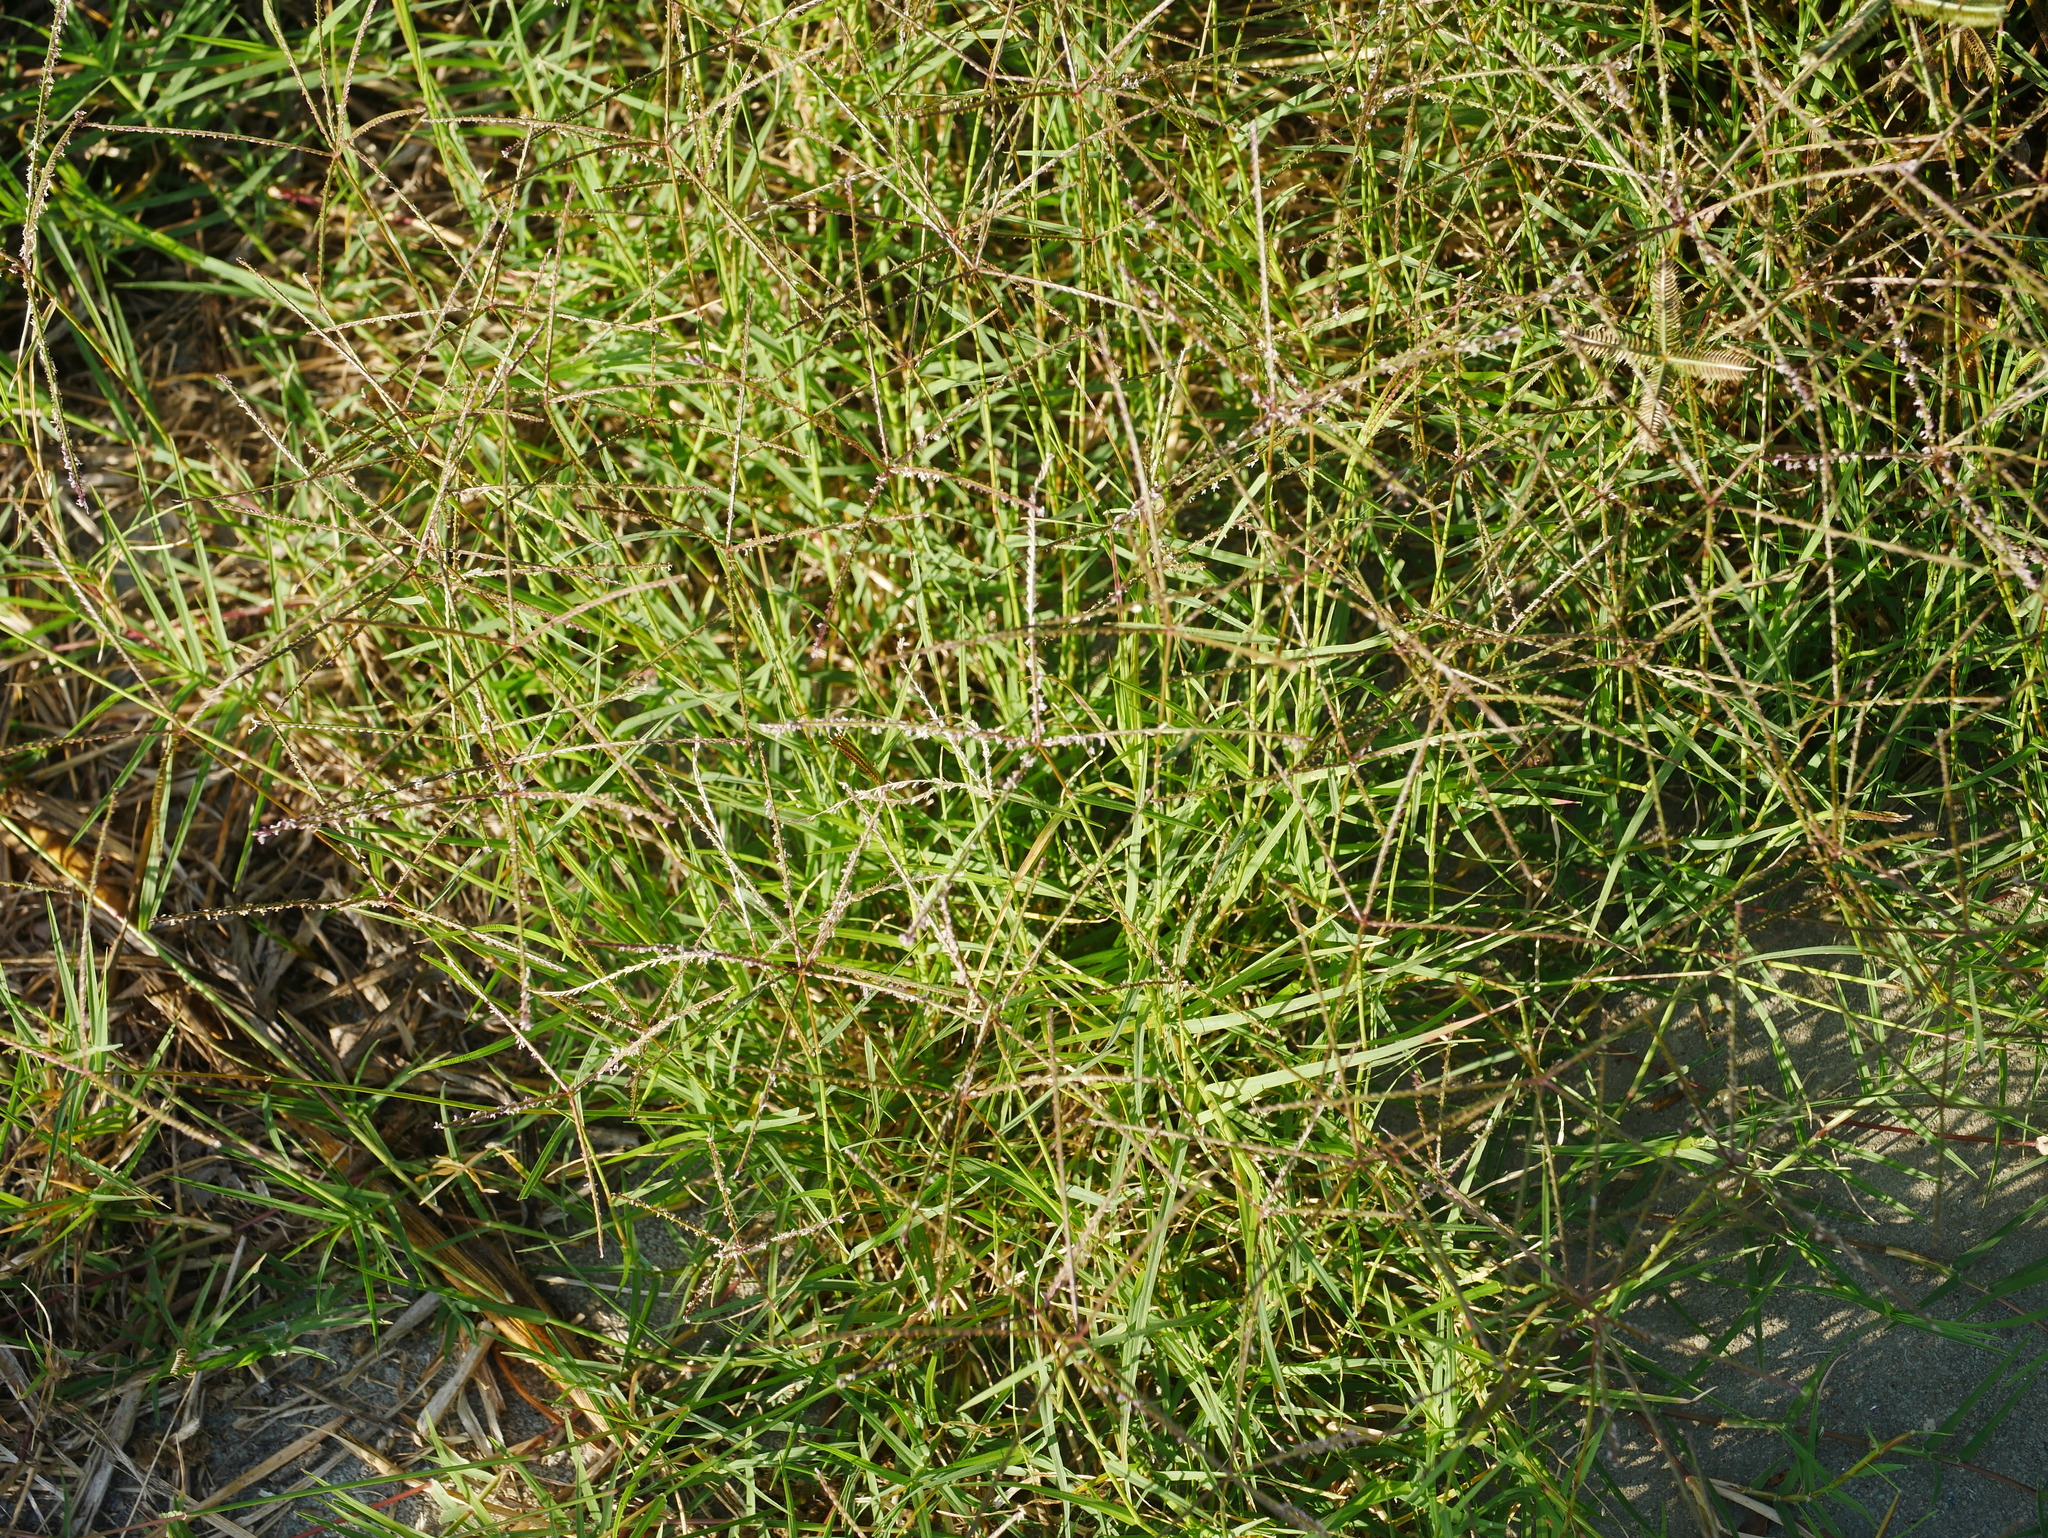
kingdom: Plantae
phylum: Tracheophyta
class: Liliopsida
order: Poales
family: Poaceae
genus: Cynodon
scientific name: Cynodon dactylon
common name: Bermuda grass
